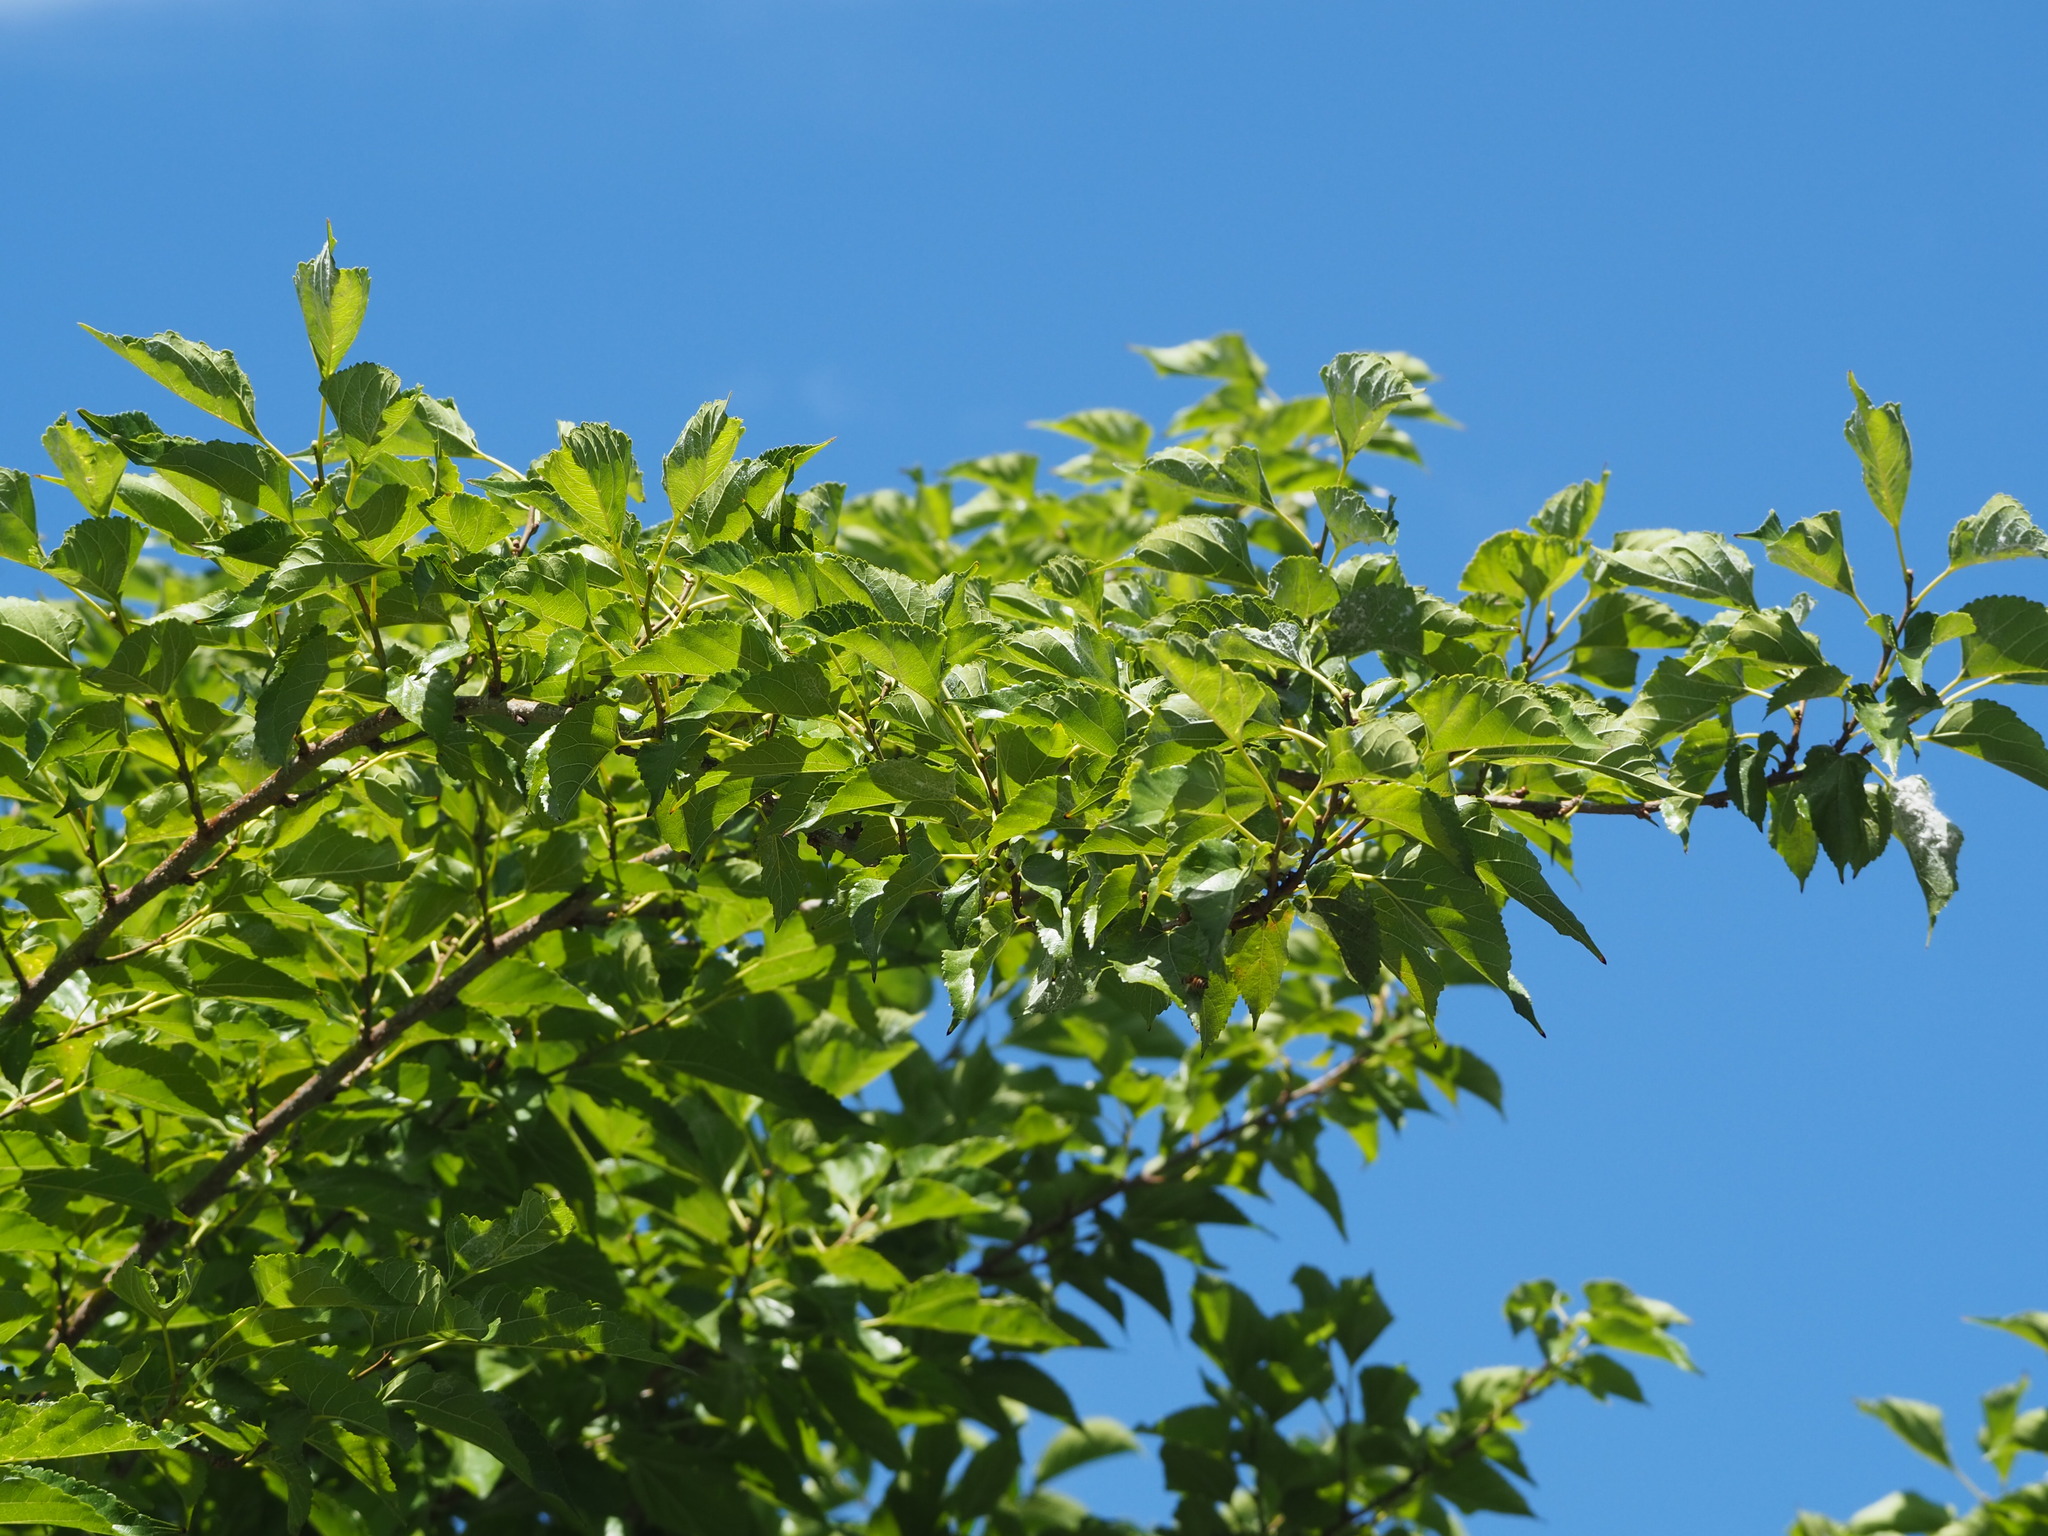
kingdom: Plantae
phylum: Tracheophyta
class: Magnoliopsida
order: Rosales
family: Moraceae
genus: Morus
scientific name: Morus indica
